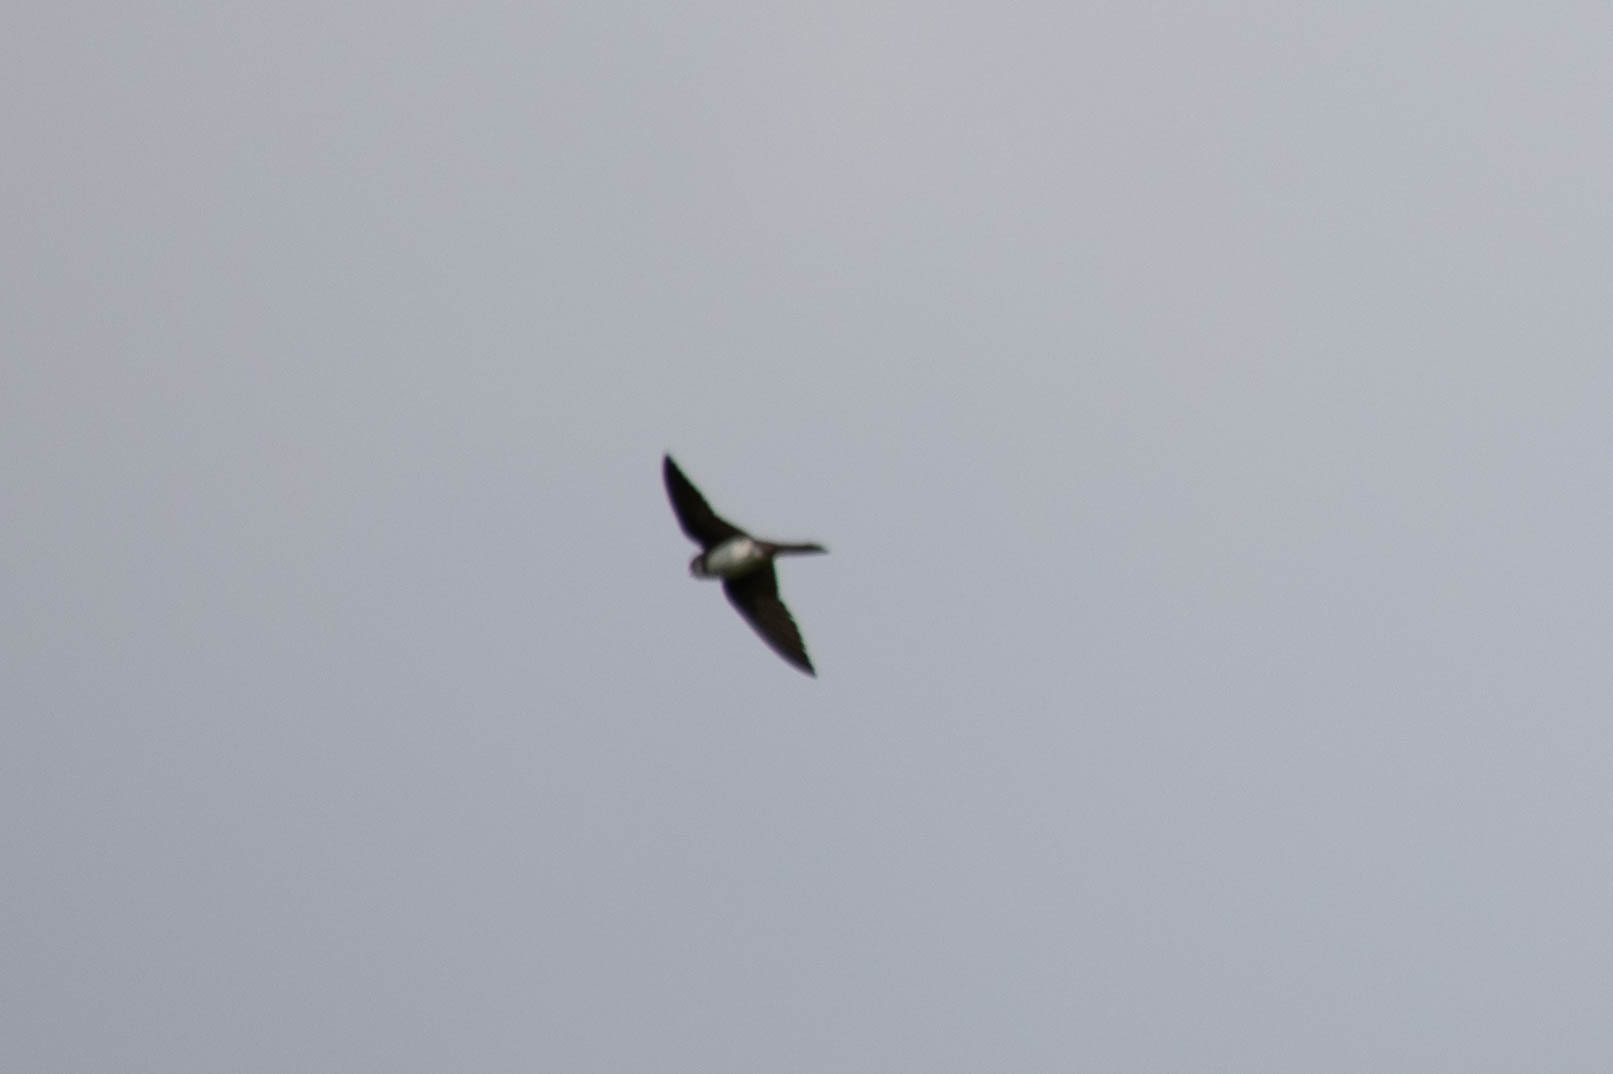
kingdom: Animalia
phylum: Chordata
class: Aves
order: Passeriformes
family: Hirundinidae
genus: Riparia
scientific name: Riparia riparia
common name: Sand martin
